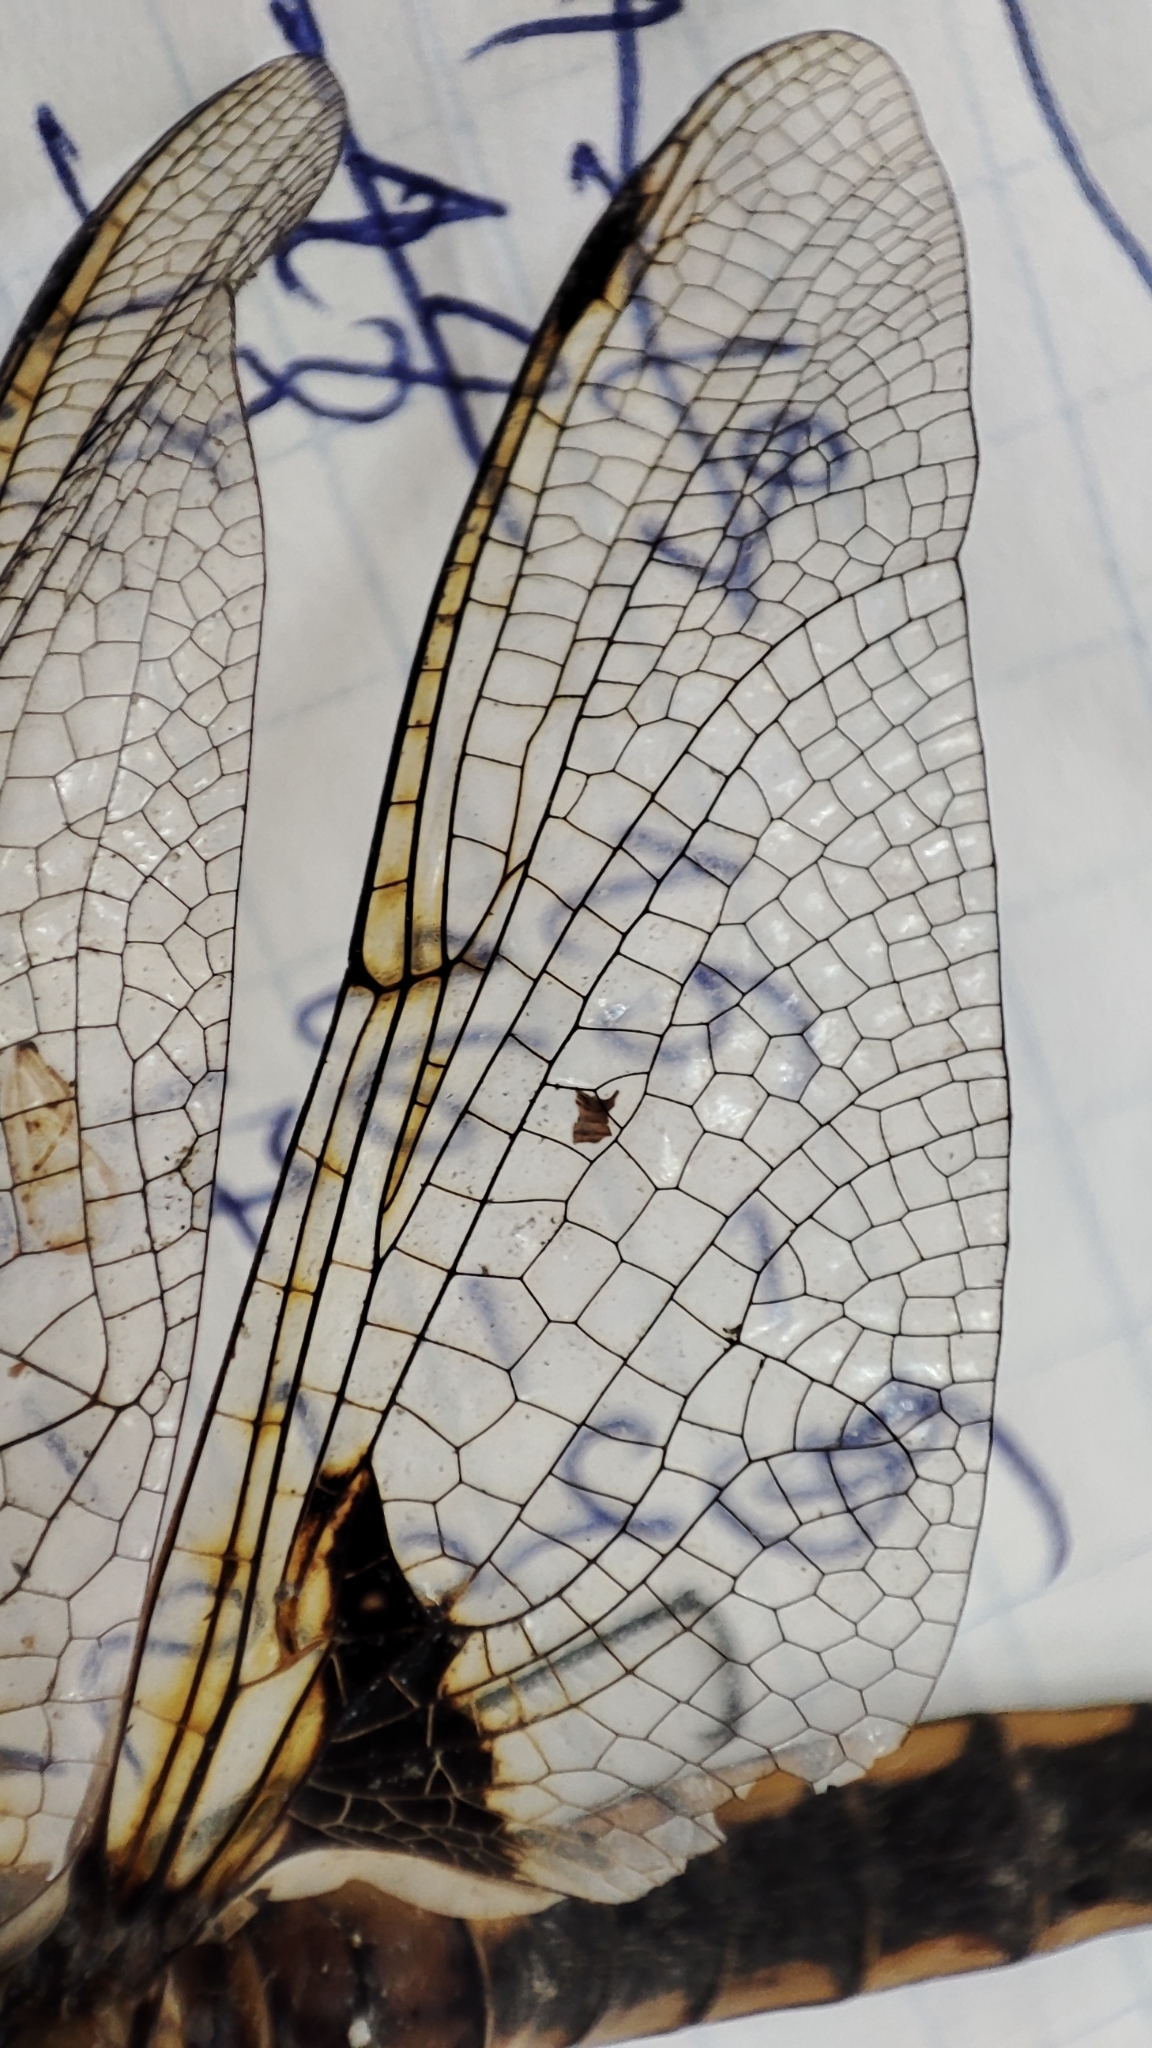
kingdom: Animalia
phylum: Arthropoda
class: Insecta
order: Odonata
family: Corduliidae
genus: Epitheca
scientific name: Epitheca bimaculata
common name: Eurasian baskettail
